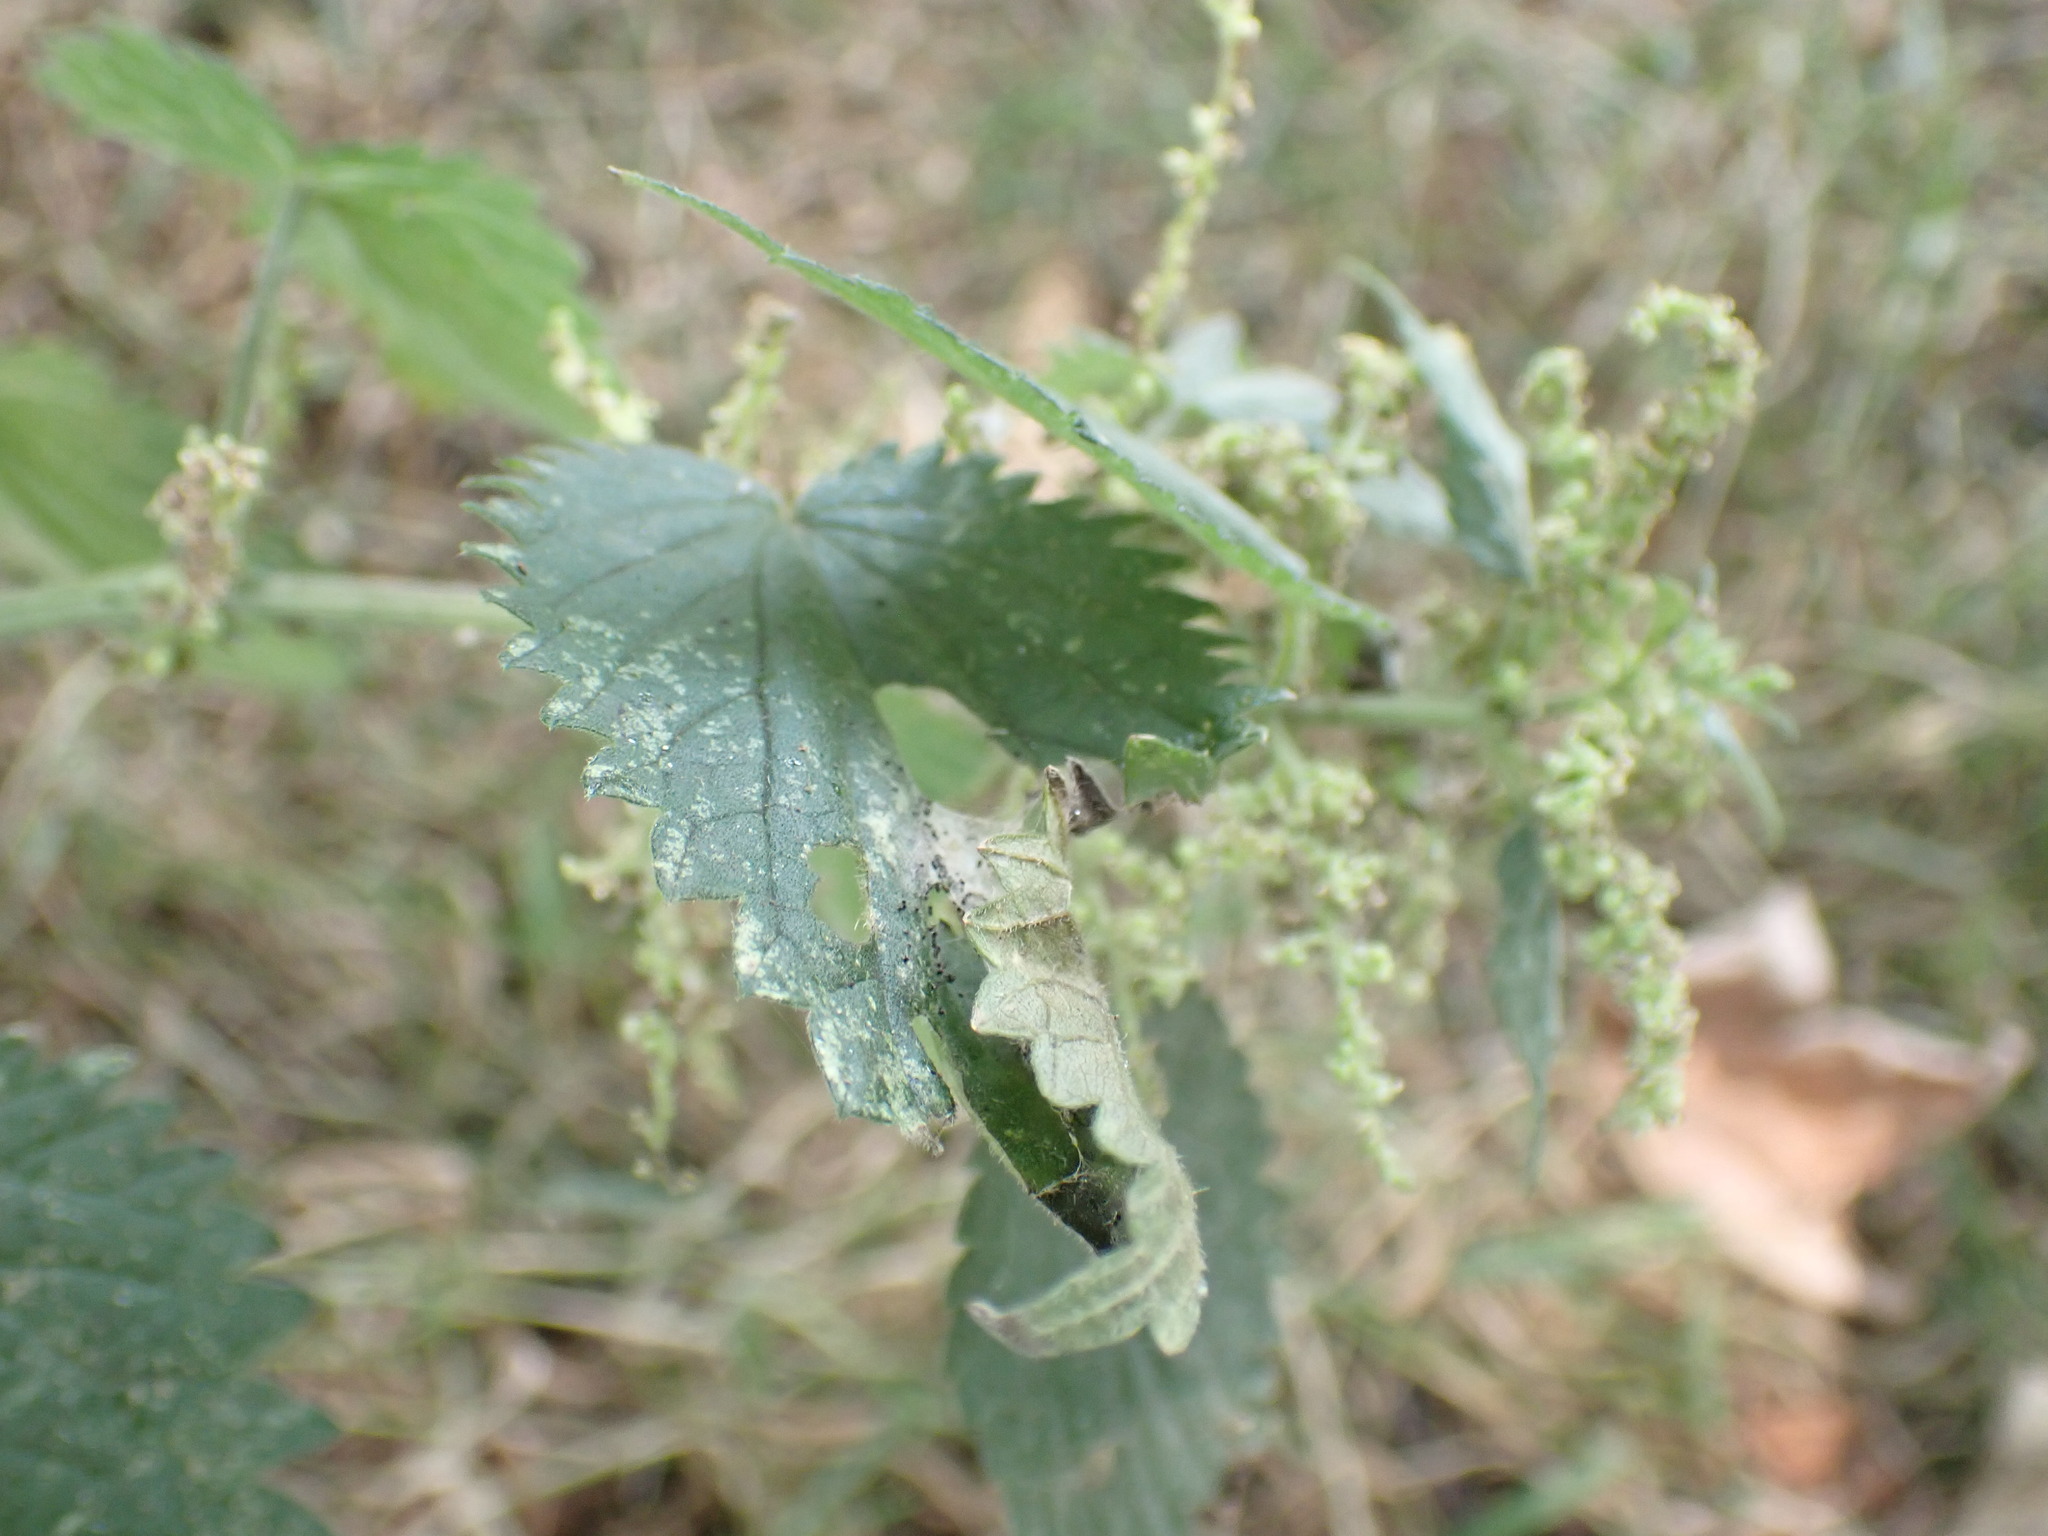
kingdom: Plantae
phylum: Tracheophyta
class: Magnoliopsida
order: Rosales
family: Urticaceae
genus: Urtica
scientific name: Urtica dioica
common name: Common nettle
